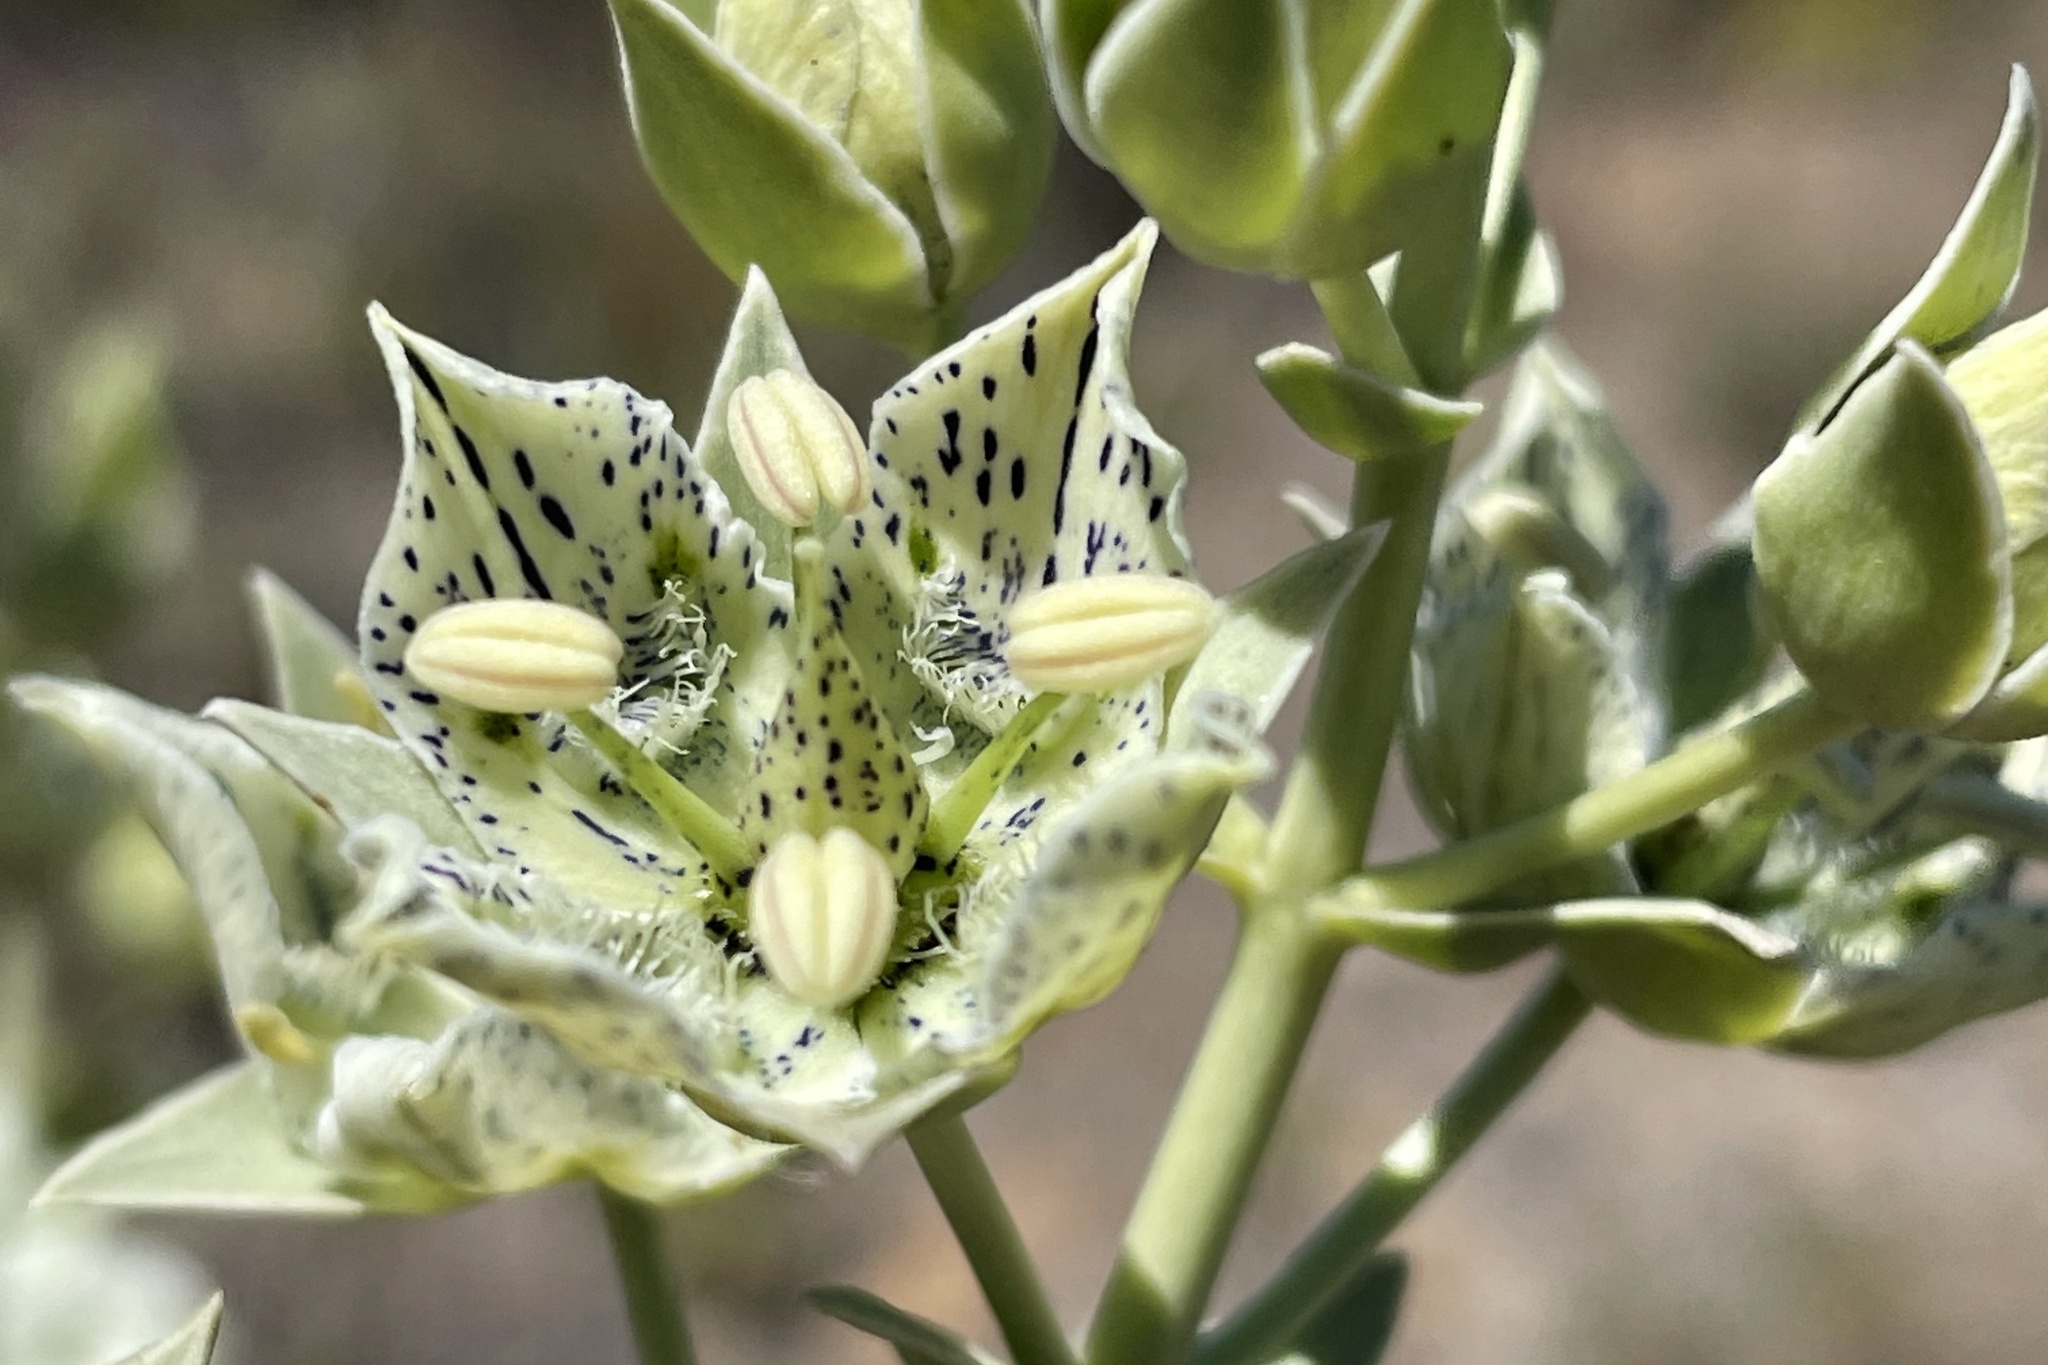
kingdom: Plantae
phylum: Tracheophyta
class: Magnoliopsida
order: Gentianales
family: Gentianaceae
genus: Frasera
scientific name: Frasera parryi
